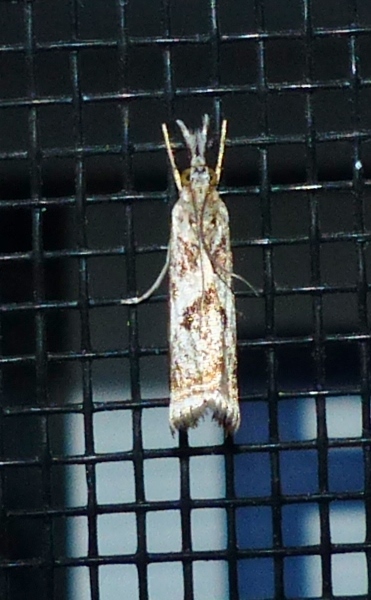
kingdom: Animalia
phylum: Arthropoda
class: Insecta
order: Lepidoptera
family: Crambidae
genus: Microcrambus
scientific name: Microcrambus elegans
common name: Elegant grass-veneer
